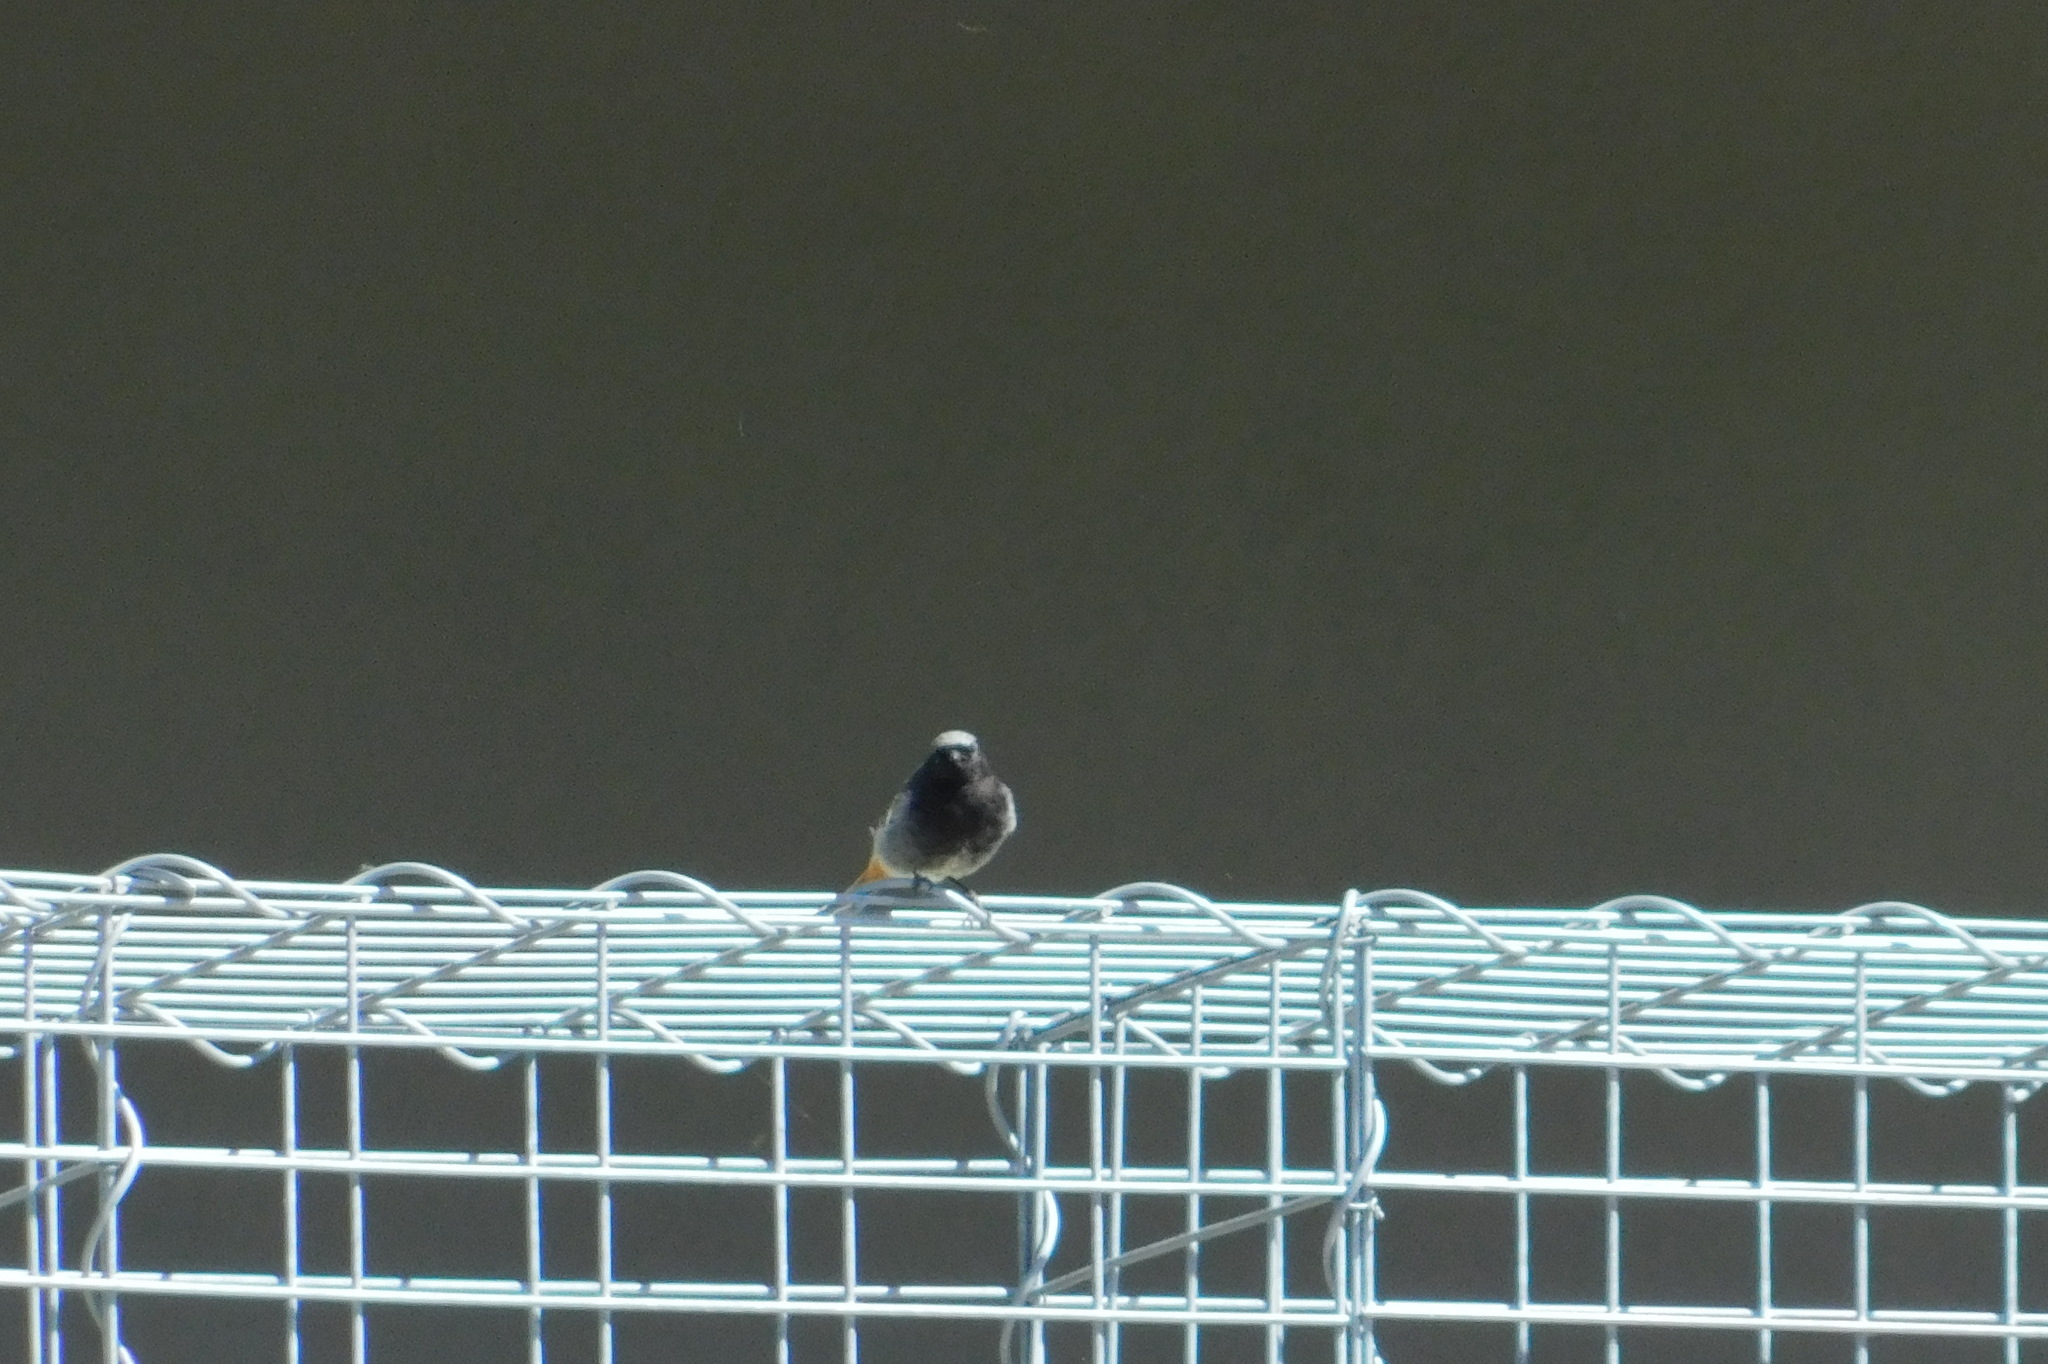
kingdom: Animalia
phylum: Chordata
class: Aves
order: Passeriformes
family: Muscicapidae
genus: Phoenicurus
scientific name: Phoenicurus ochruros
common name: Black redstart
